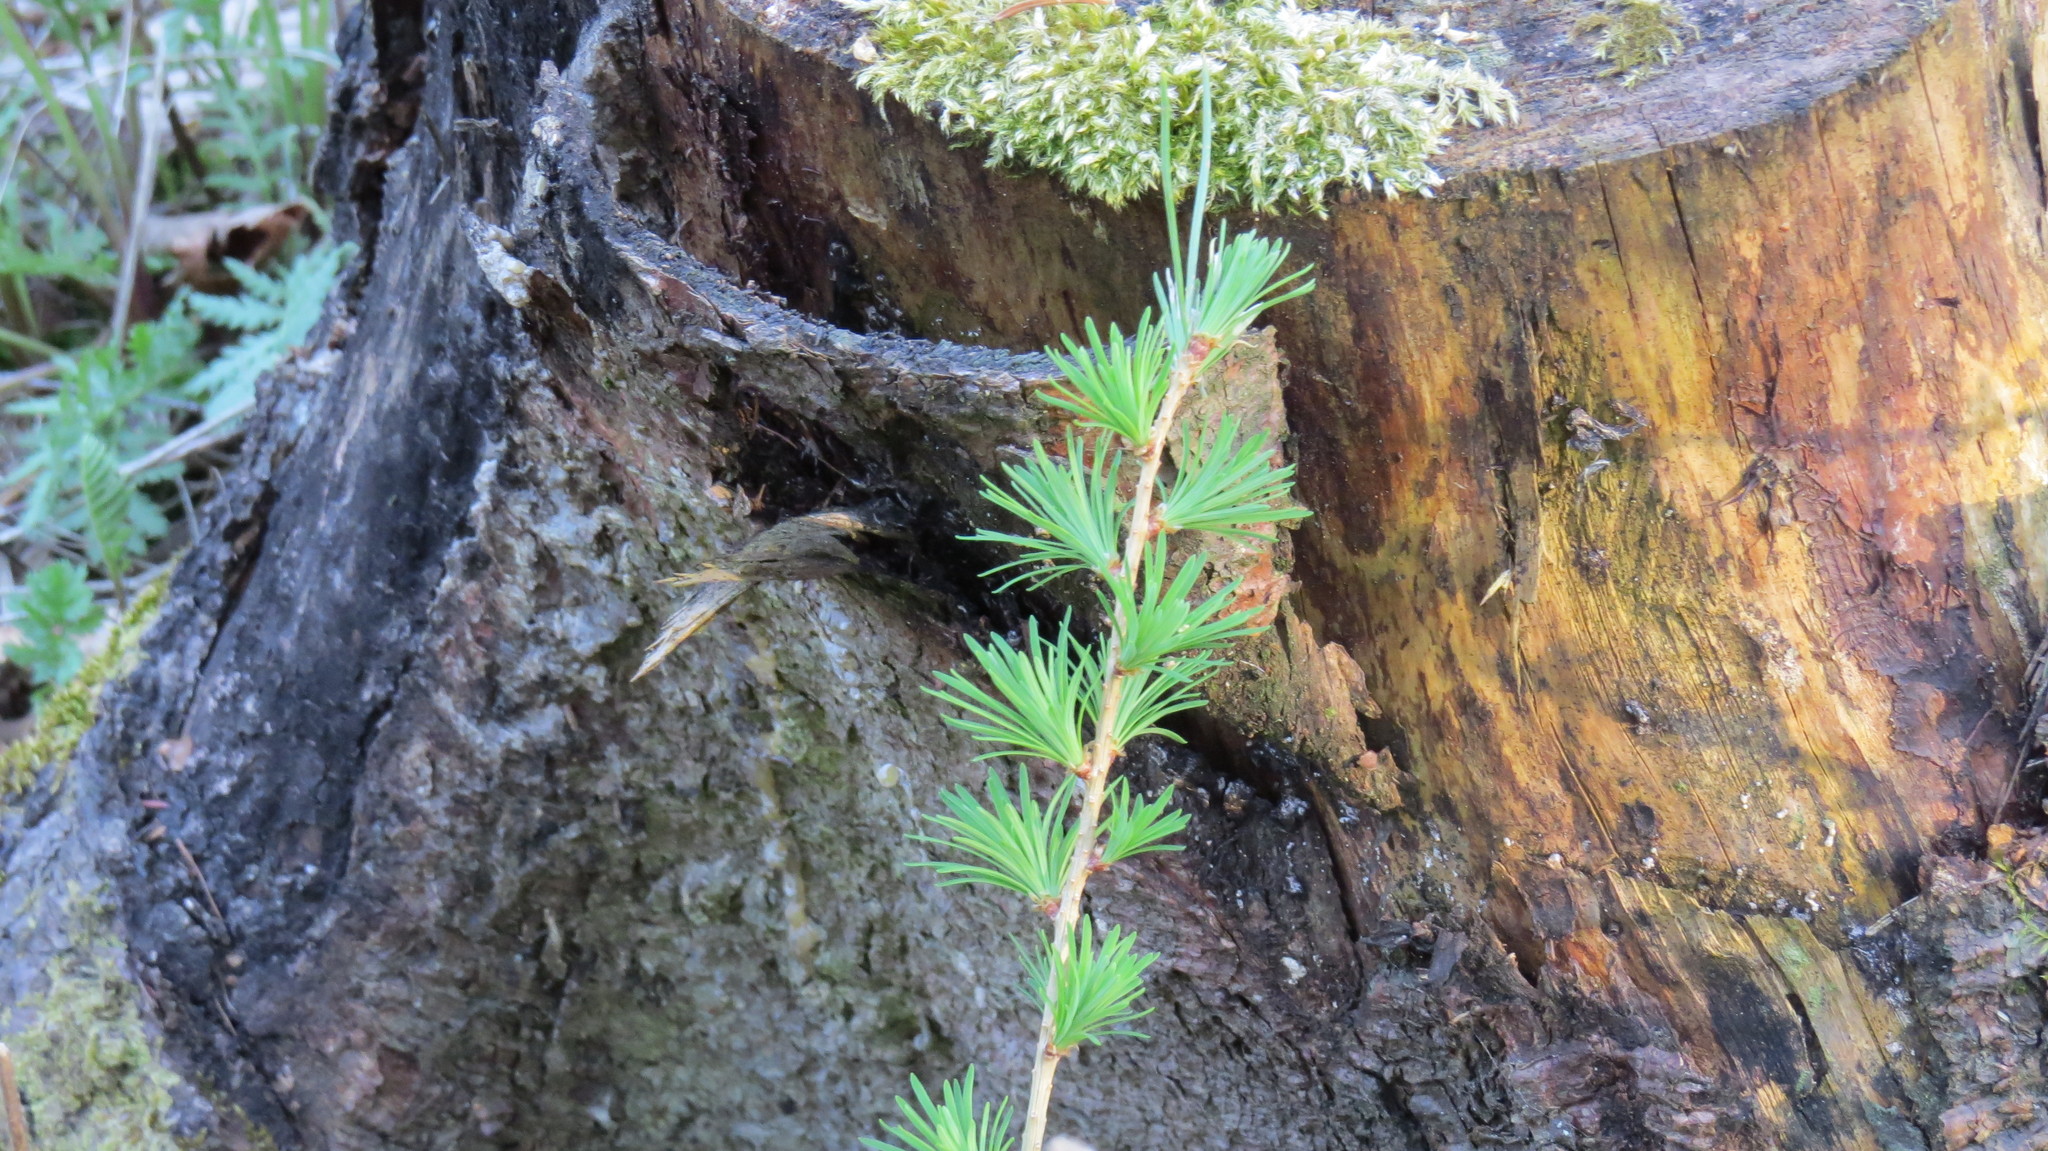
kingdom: Plantae
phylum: Tracheophyta
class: Pinopsida
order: Pinales
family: Pinaceae
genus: Larix
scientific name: Larix decidua
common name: European larch
